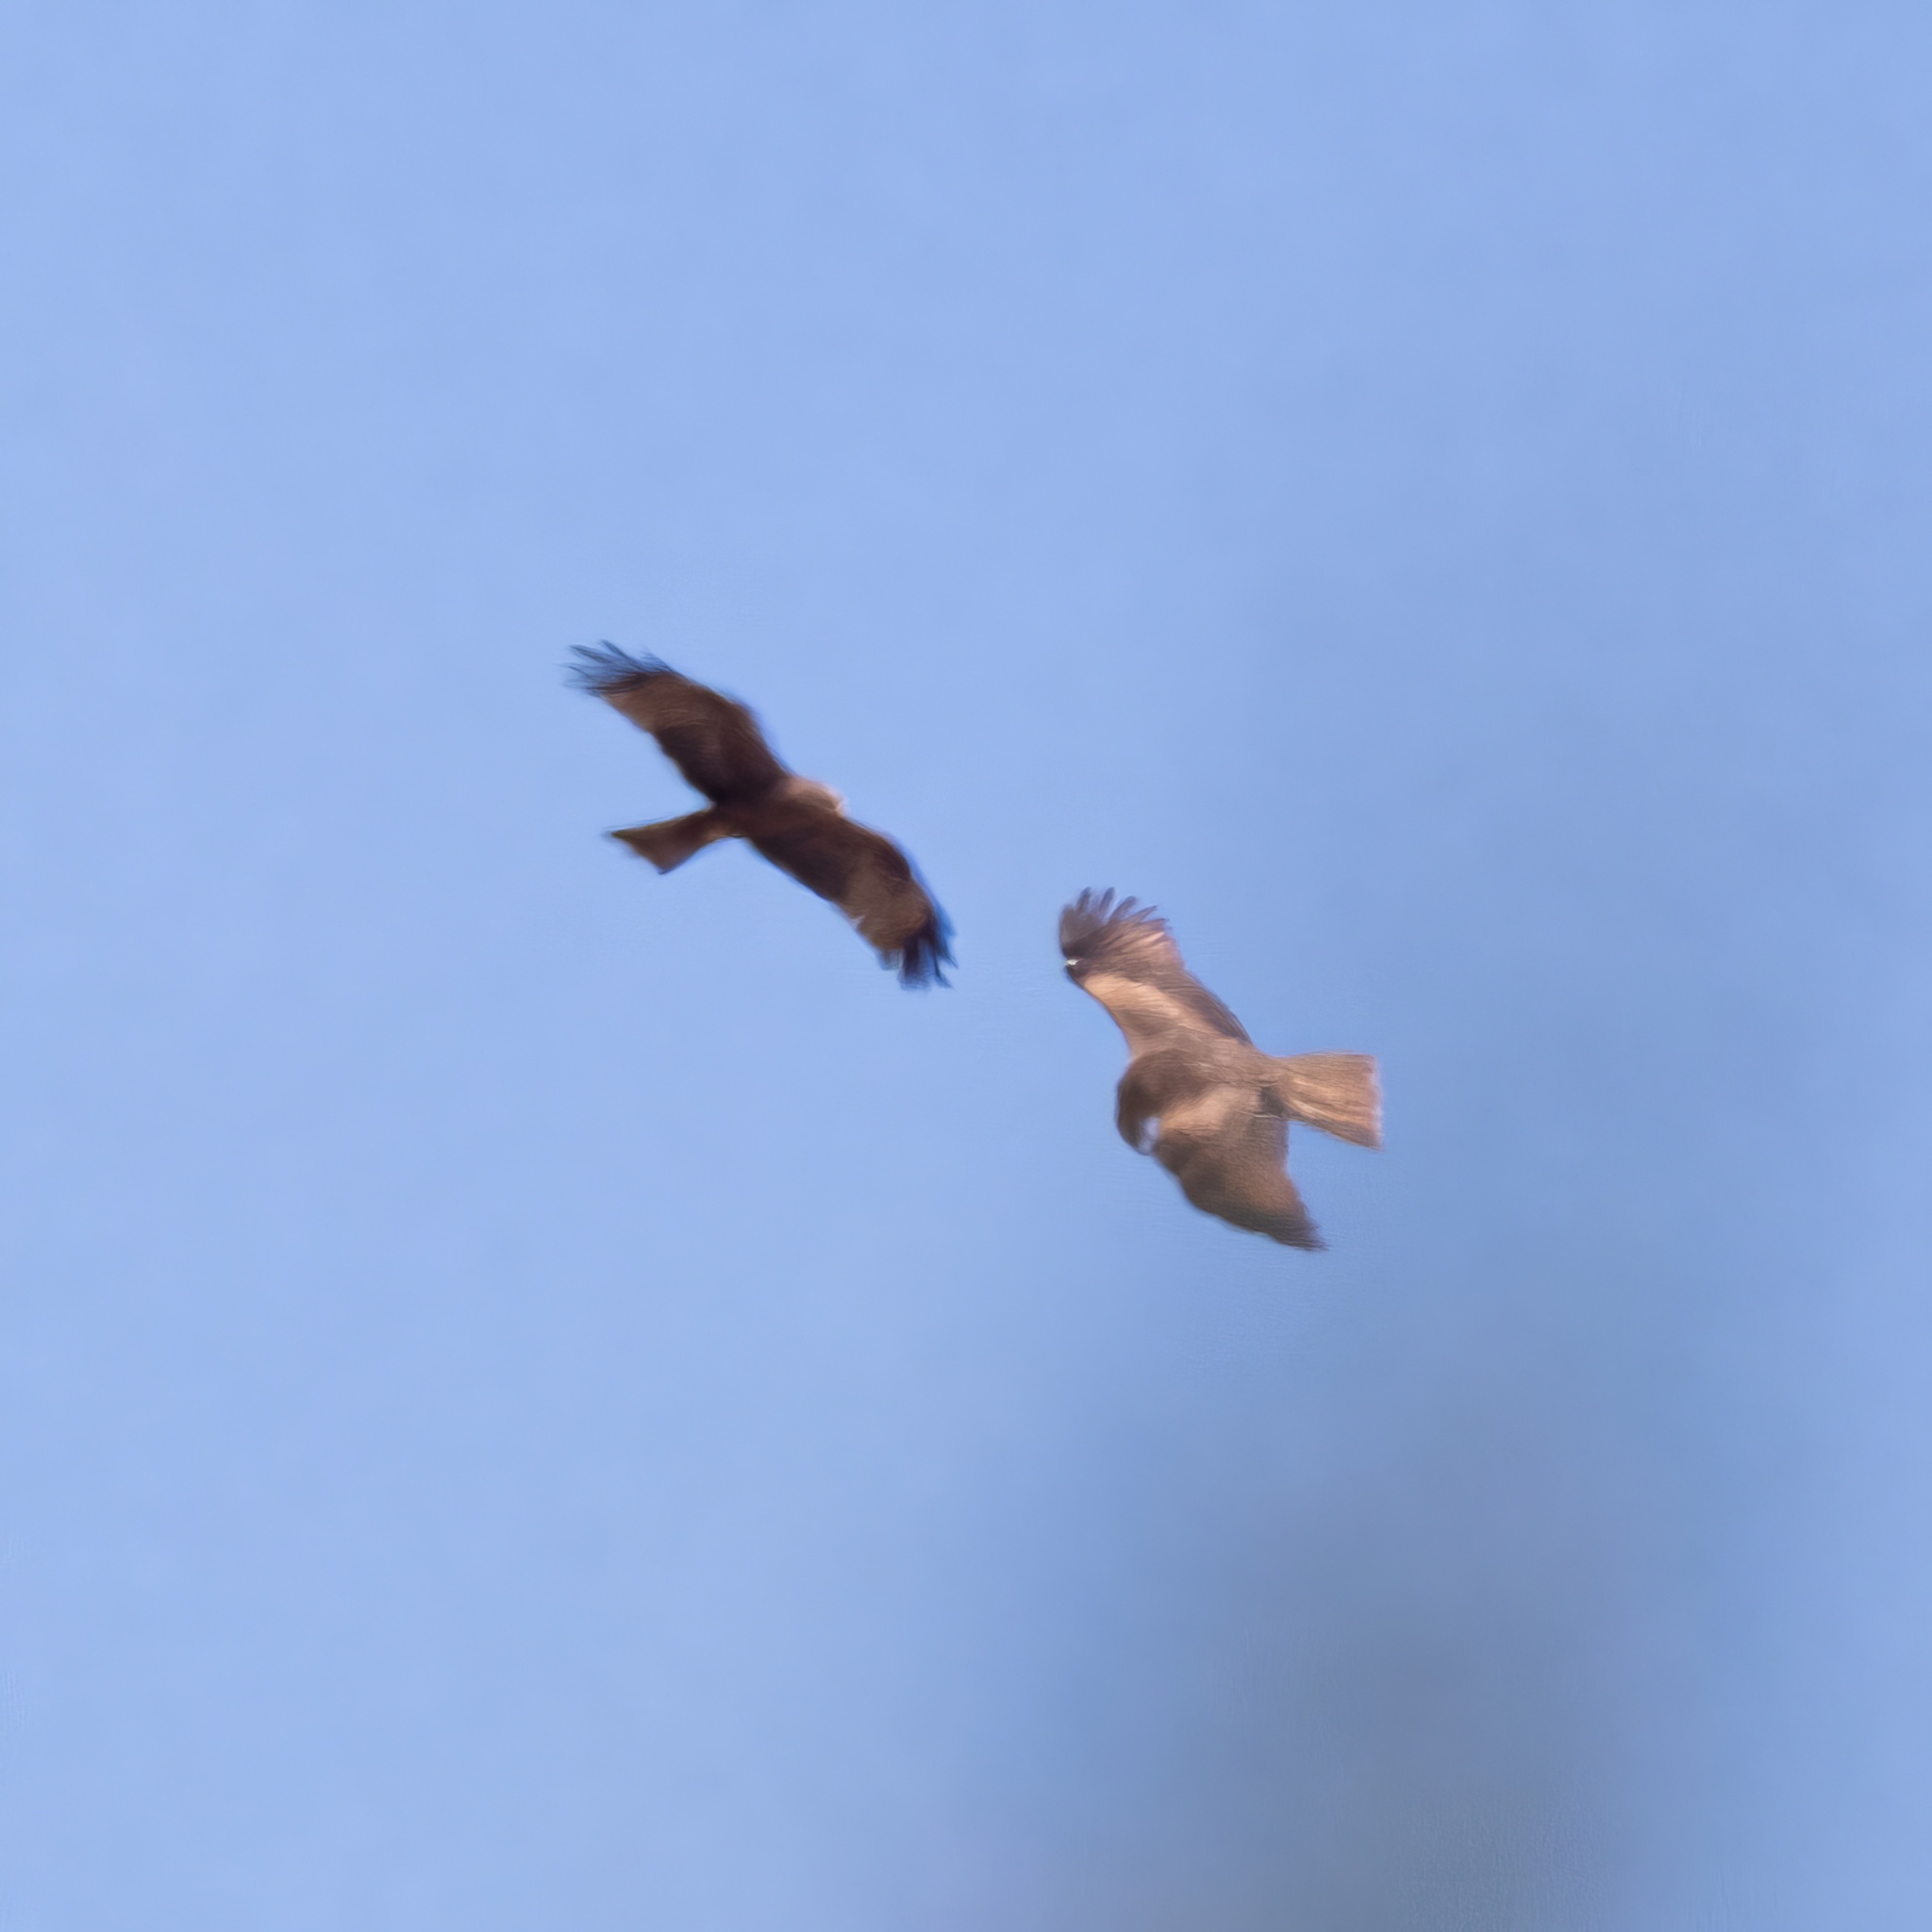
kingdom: Animalia
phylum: Chordata
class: Aves
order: Accipitriformes
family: Accipitridae
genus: Milvus
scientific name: Milvus migrans
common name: Black kite
